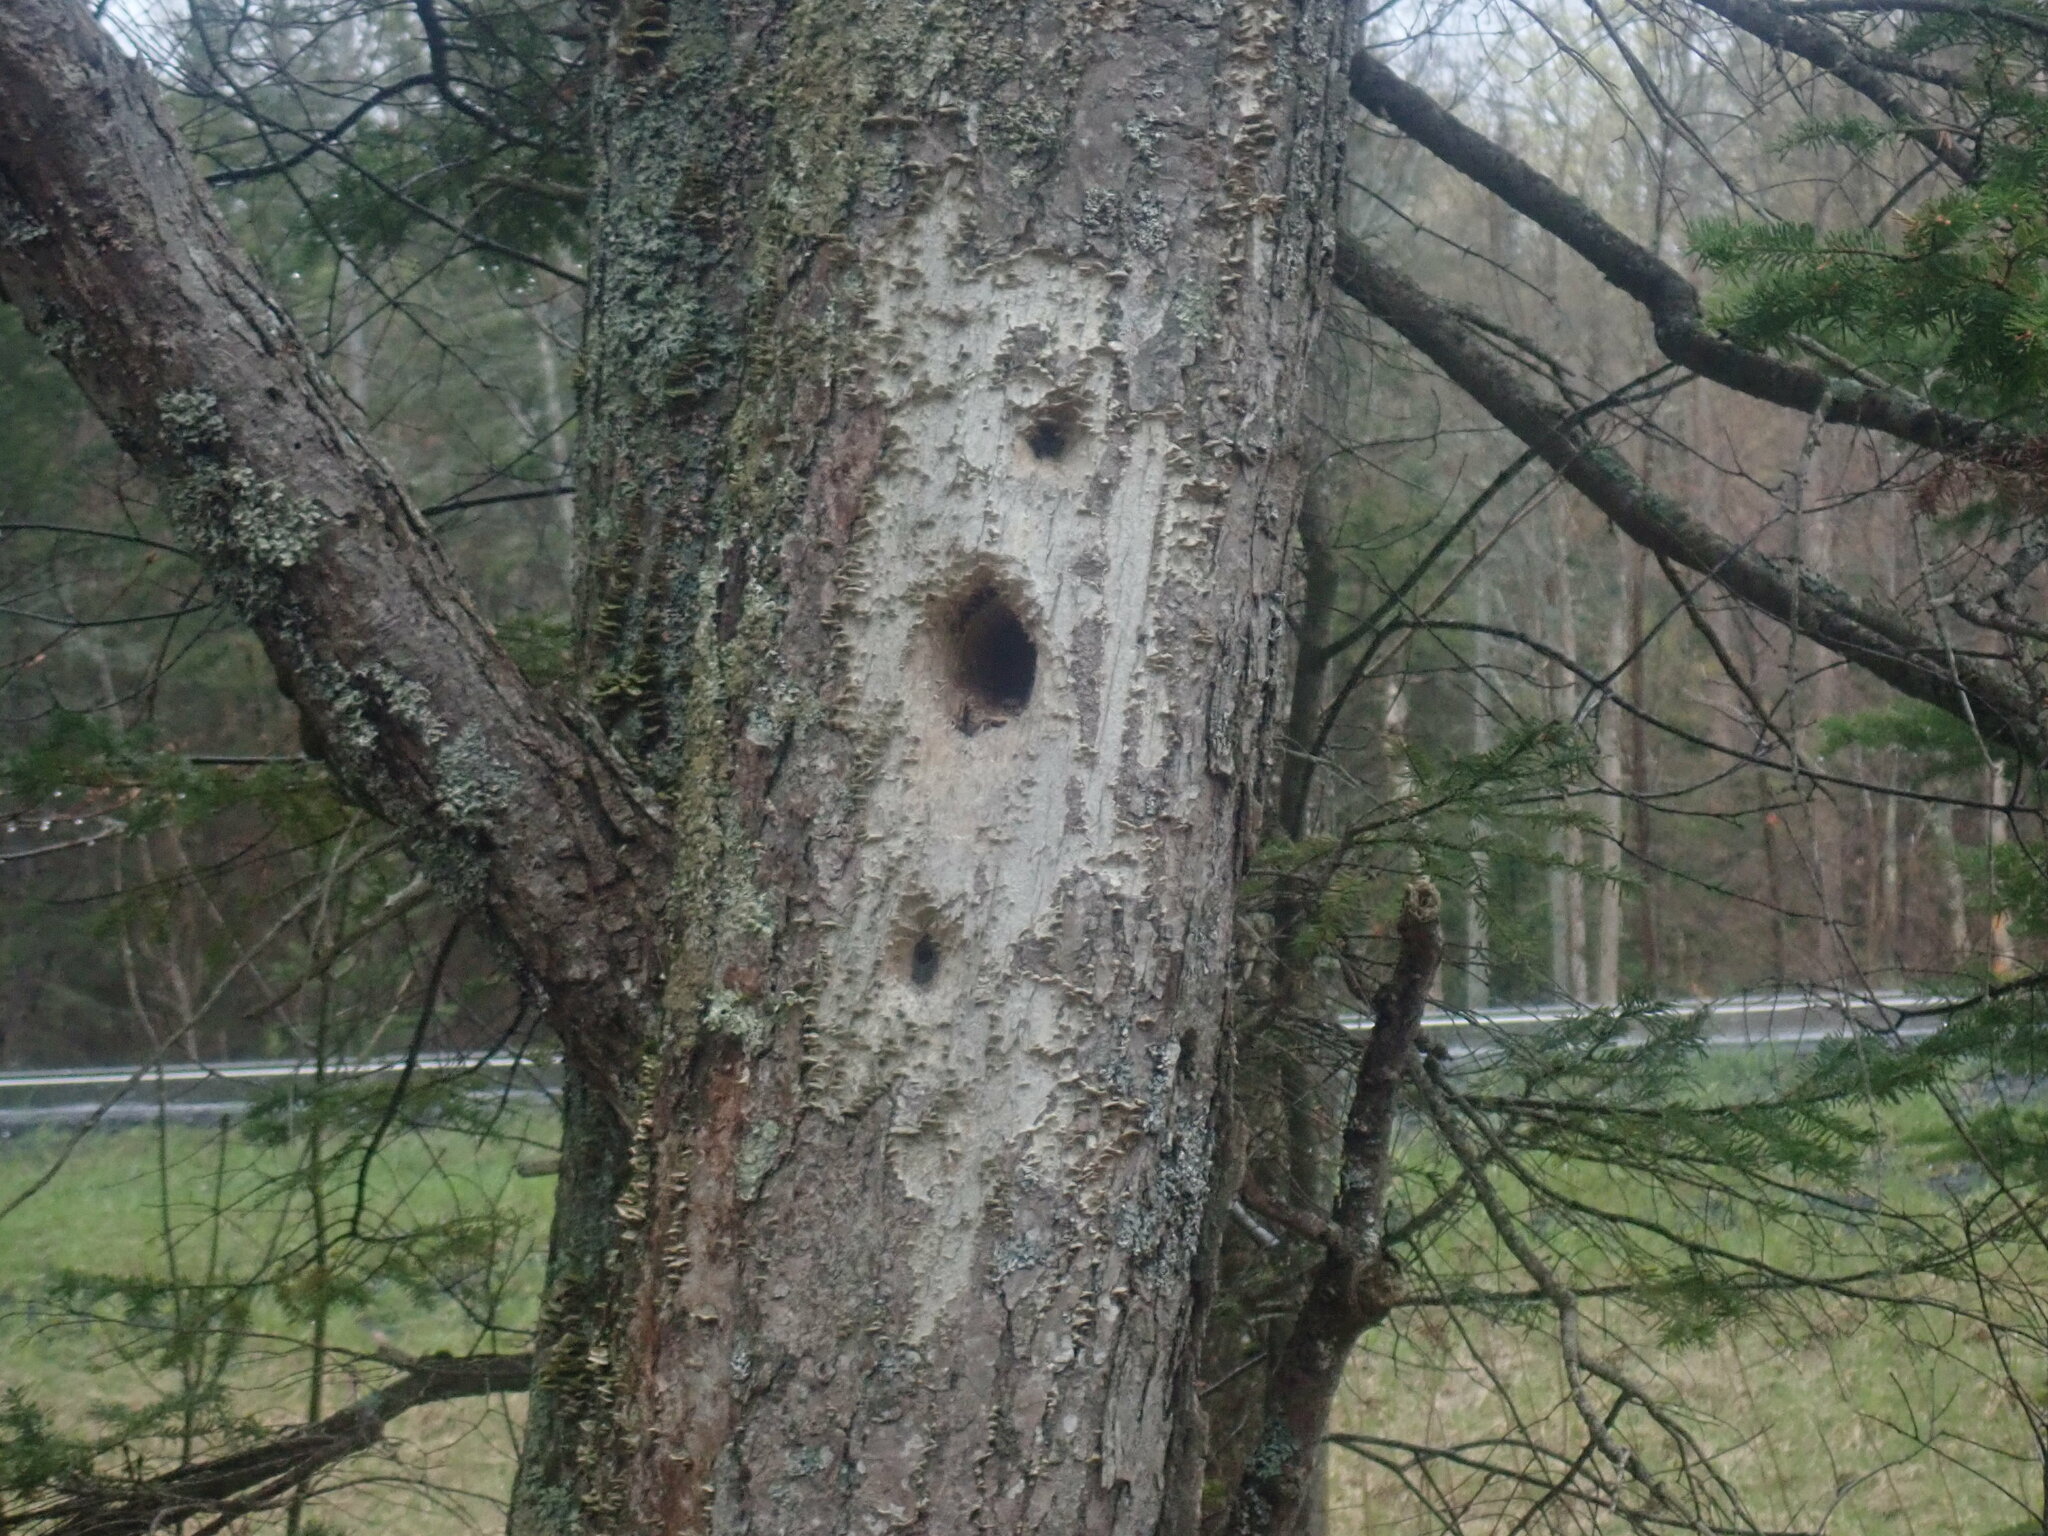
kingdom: Animalia
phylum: Chordata
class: Aves
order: Piciformes
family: Picidae
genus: Dryocopus
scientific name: Dryocopus pileatus
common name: Pileated woodpecker
